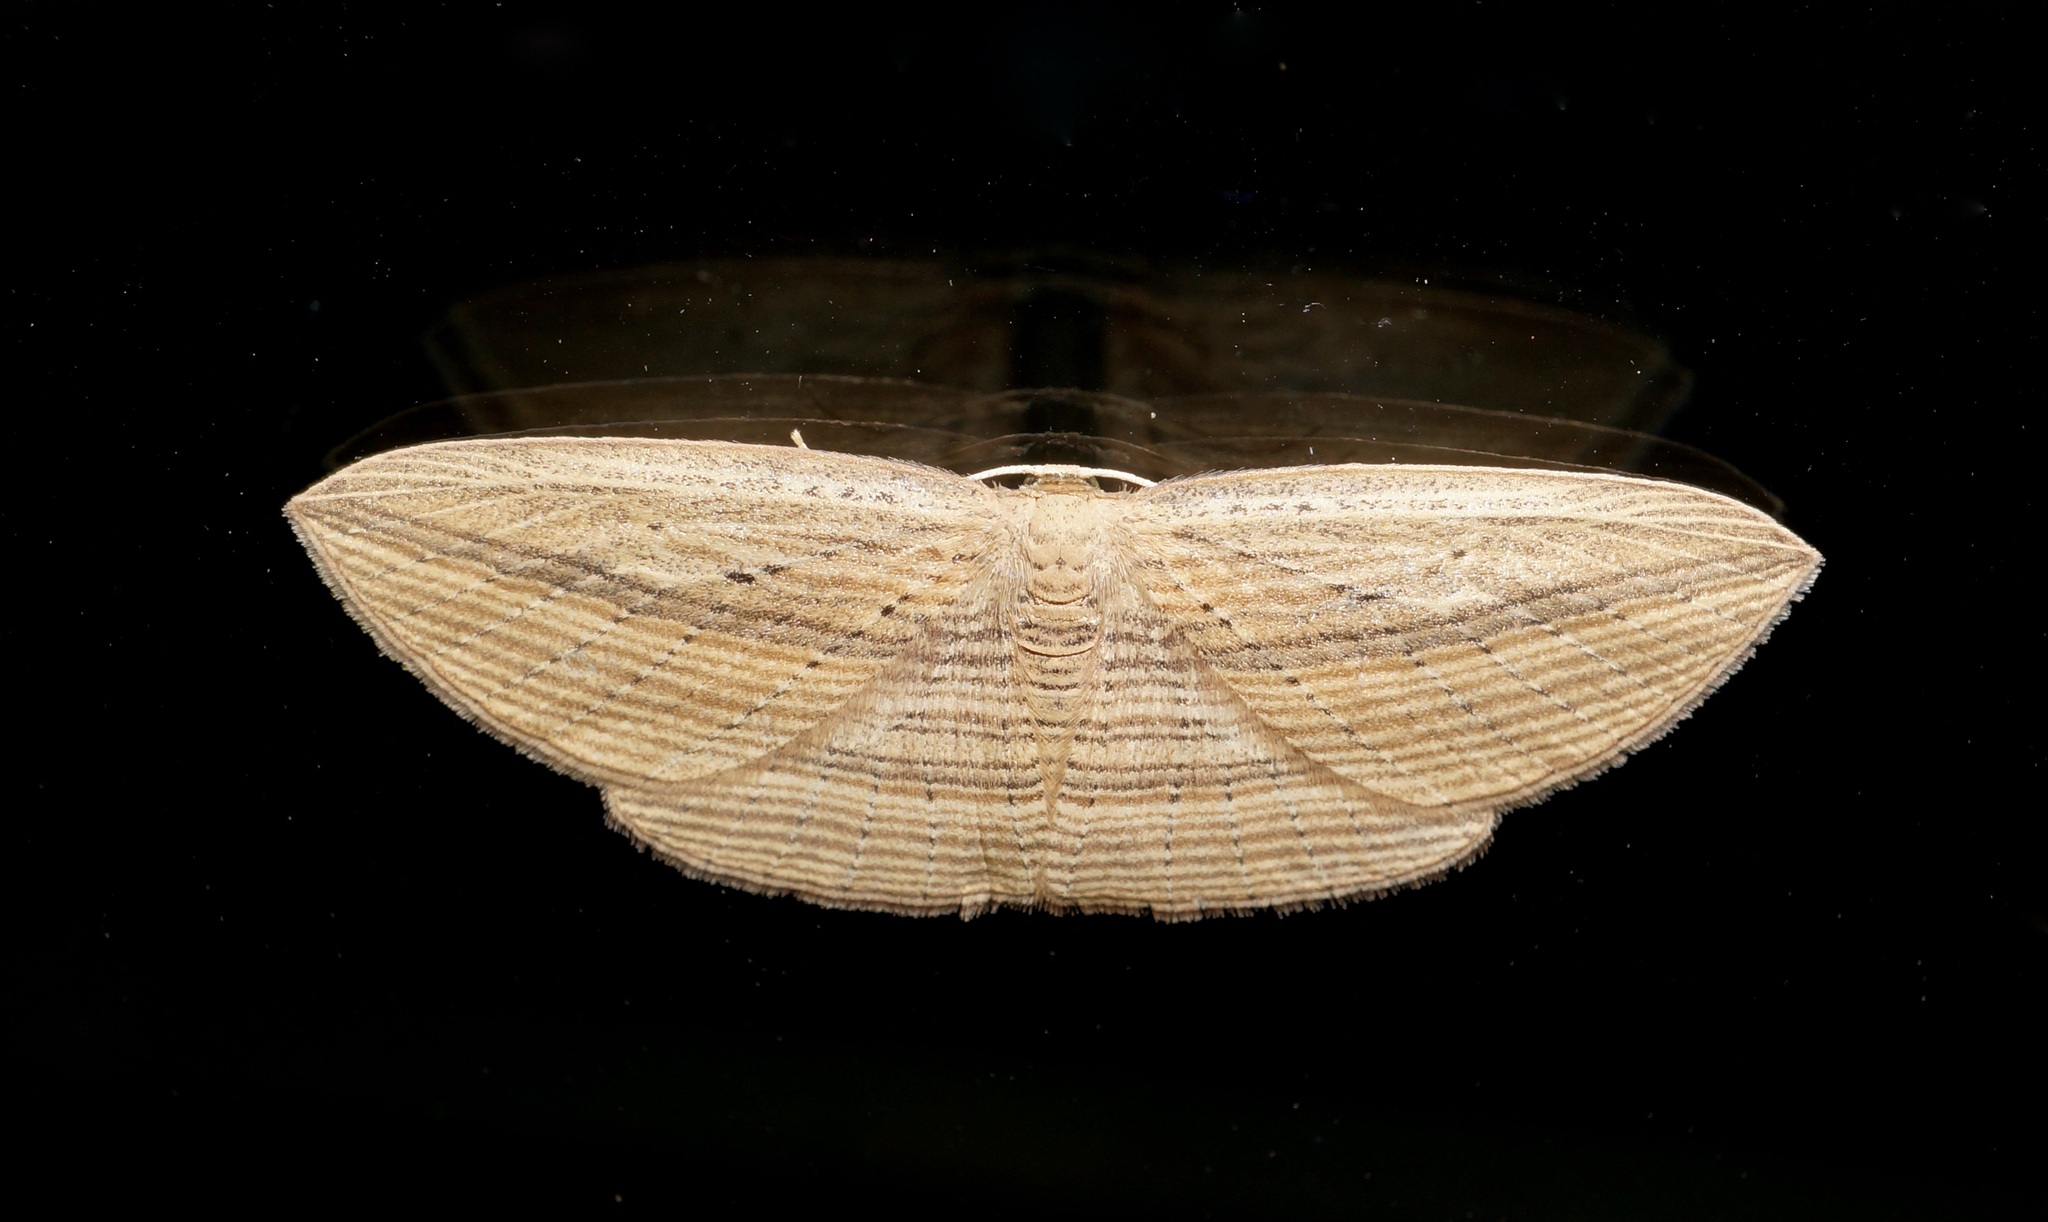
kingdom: Animalia
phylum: Arthropoda
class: Insecta
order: Lepidoptera
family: Geometridae
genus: Epiphryne
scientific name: Epiphryne verriculata
